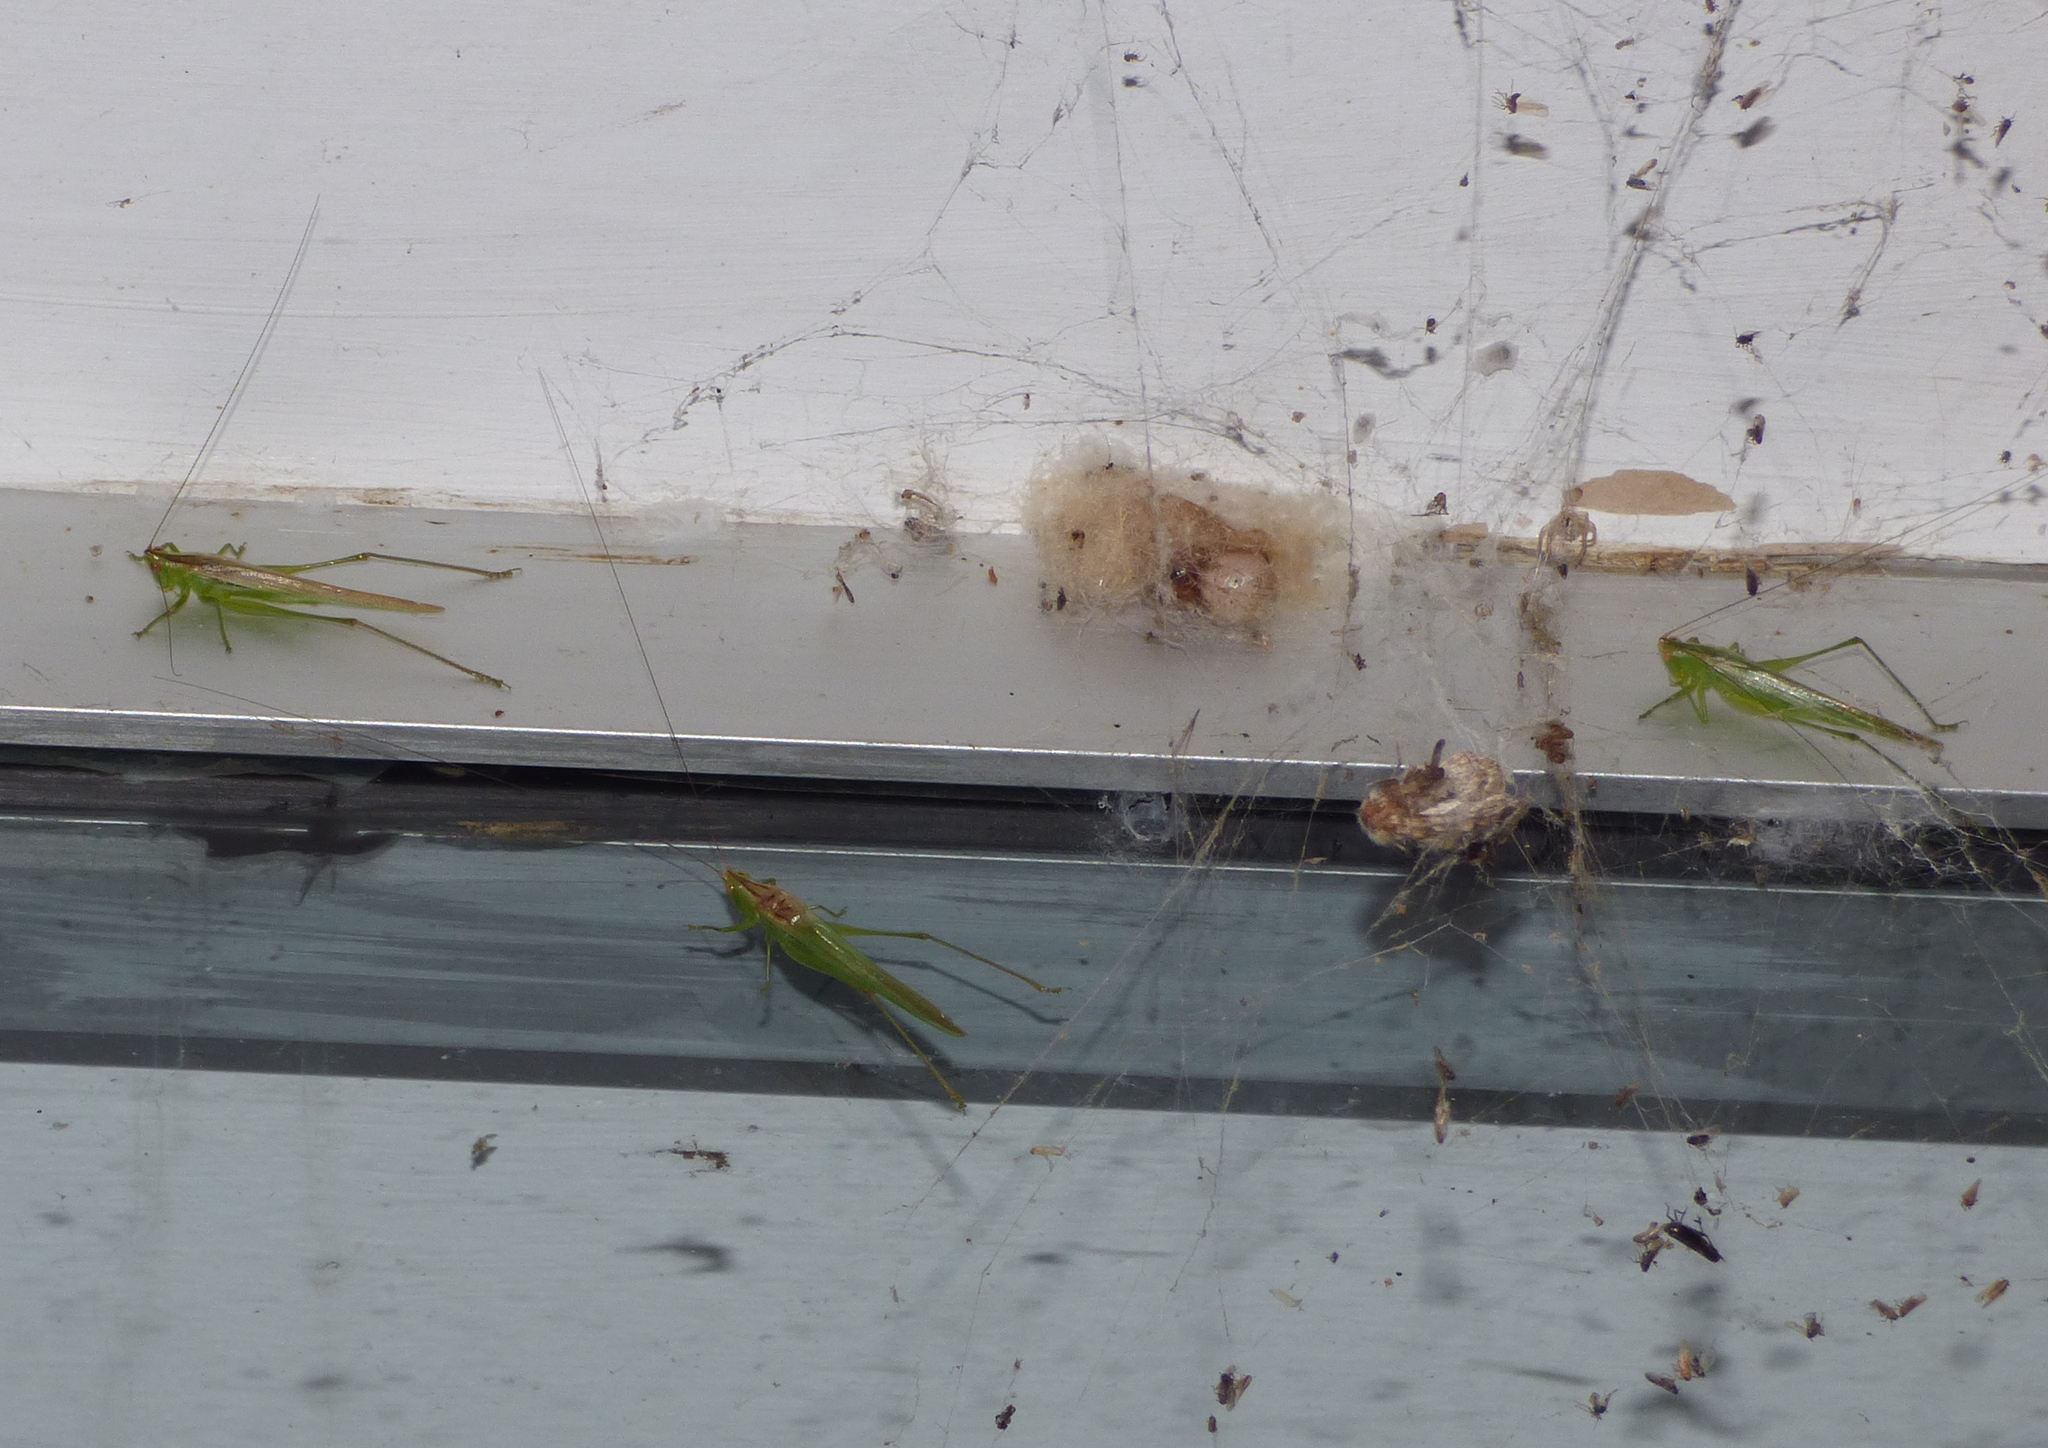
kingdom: Animalia
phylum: Arthropoda
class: Insecta
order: Orthoptera
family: Tettigoniidae
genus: Conocephalus
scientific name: Conocephalus longipes
